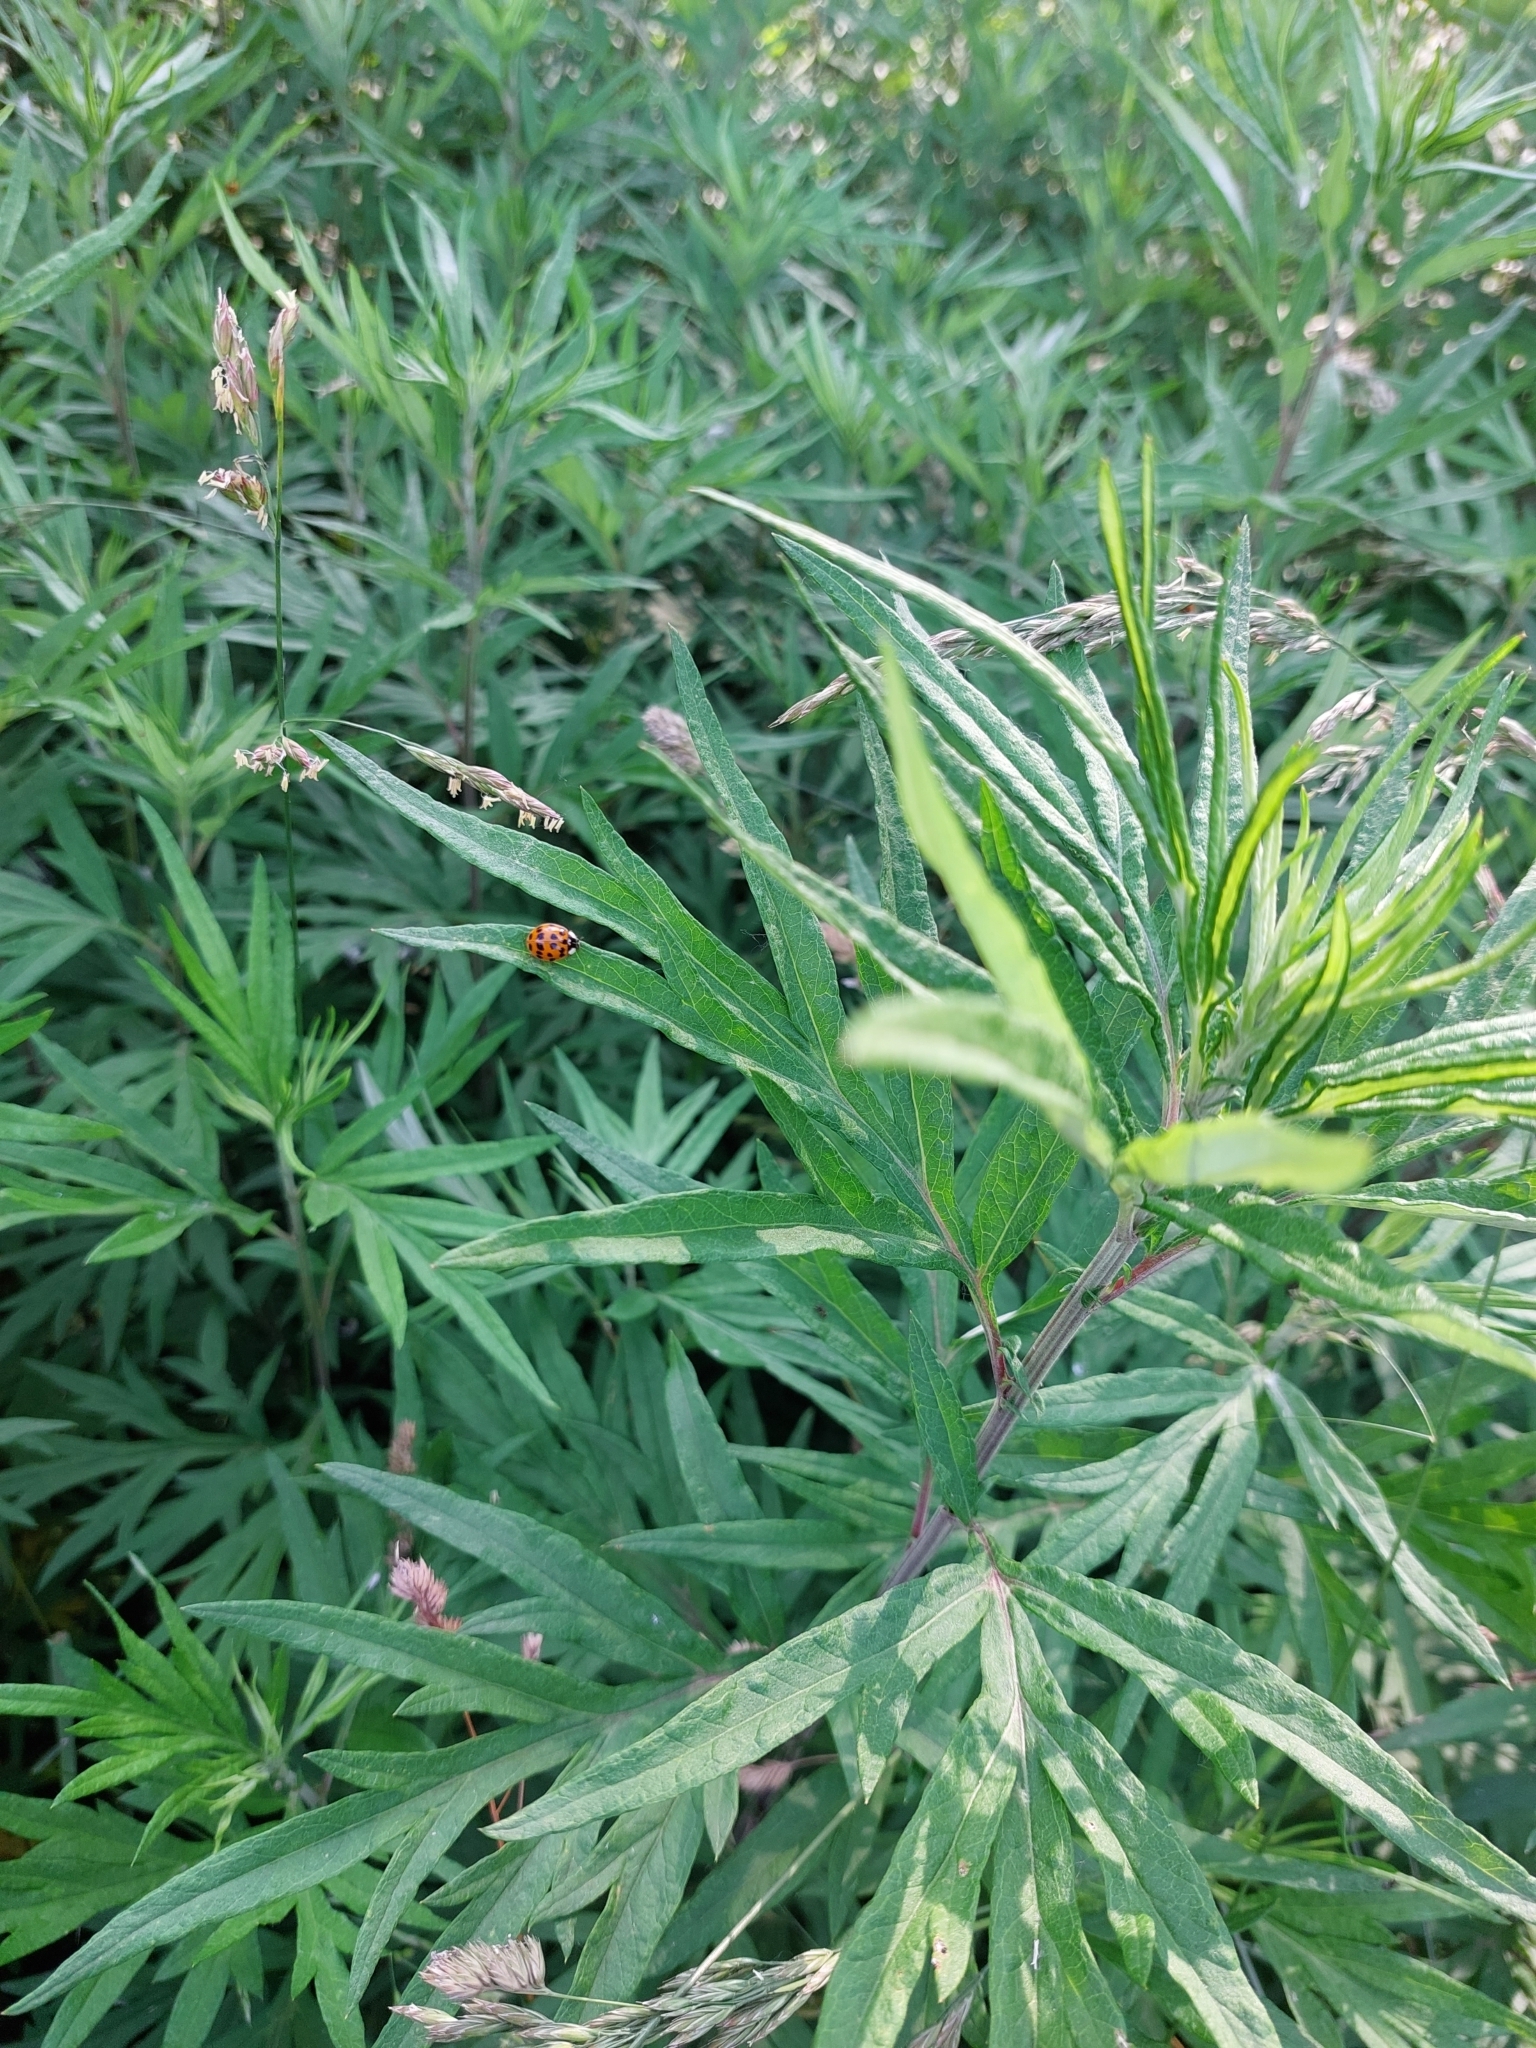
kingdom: Animalia
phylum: Arthropoda
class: Insecta
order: Coleoptera
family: Coccinellidae
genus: Harmonia
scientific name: Harmonia axyridis
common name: Harlequin ladybird
